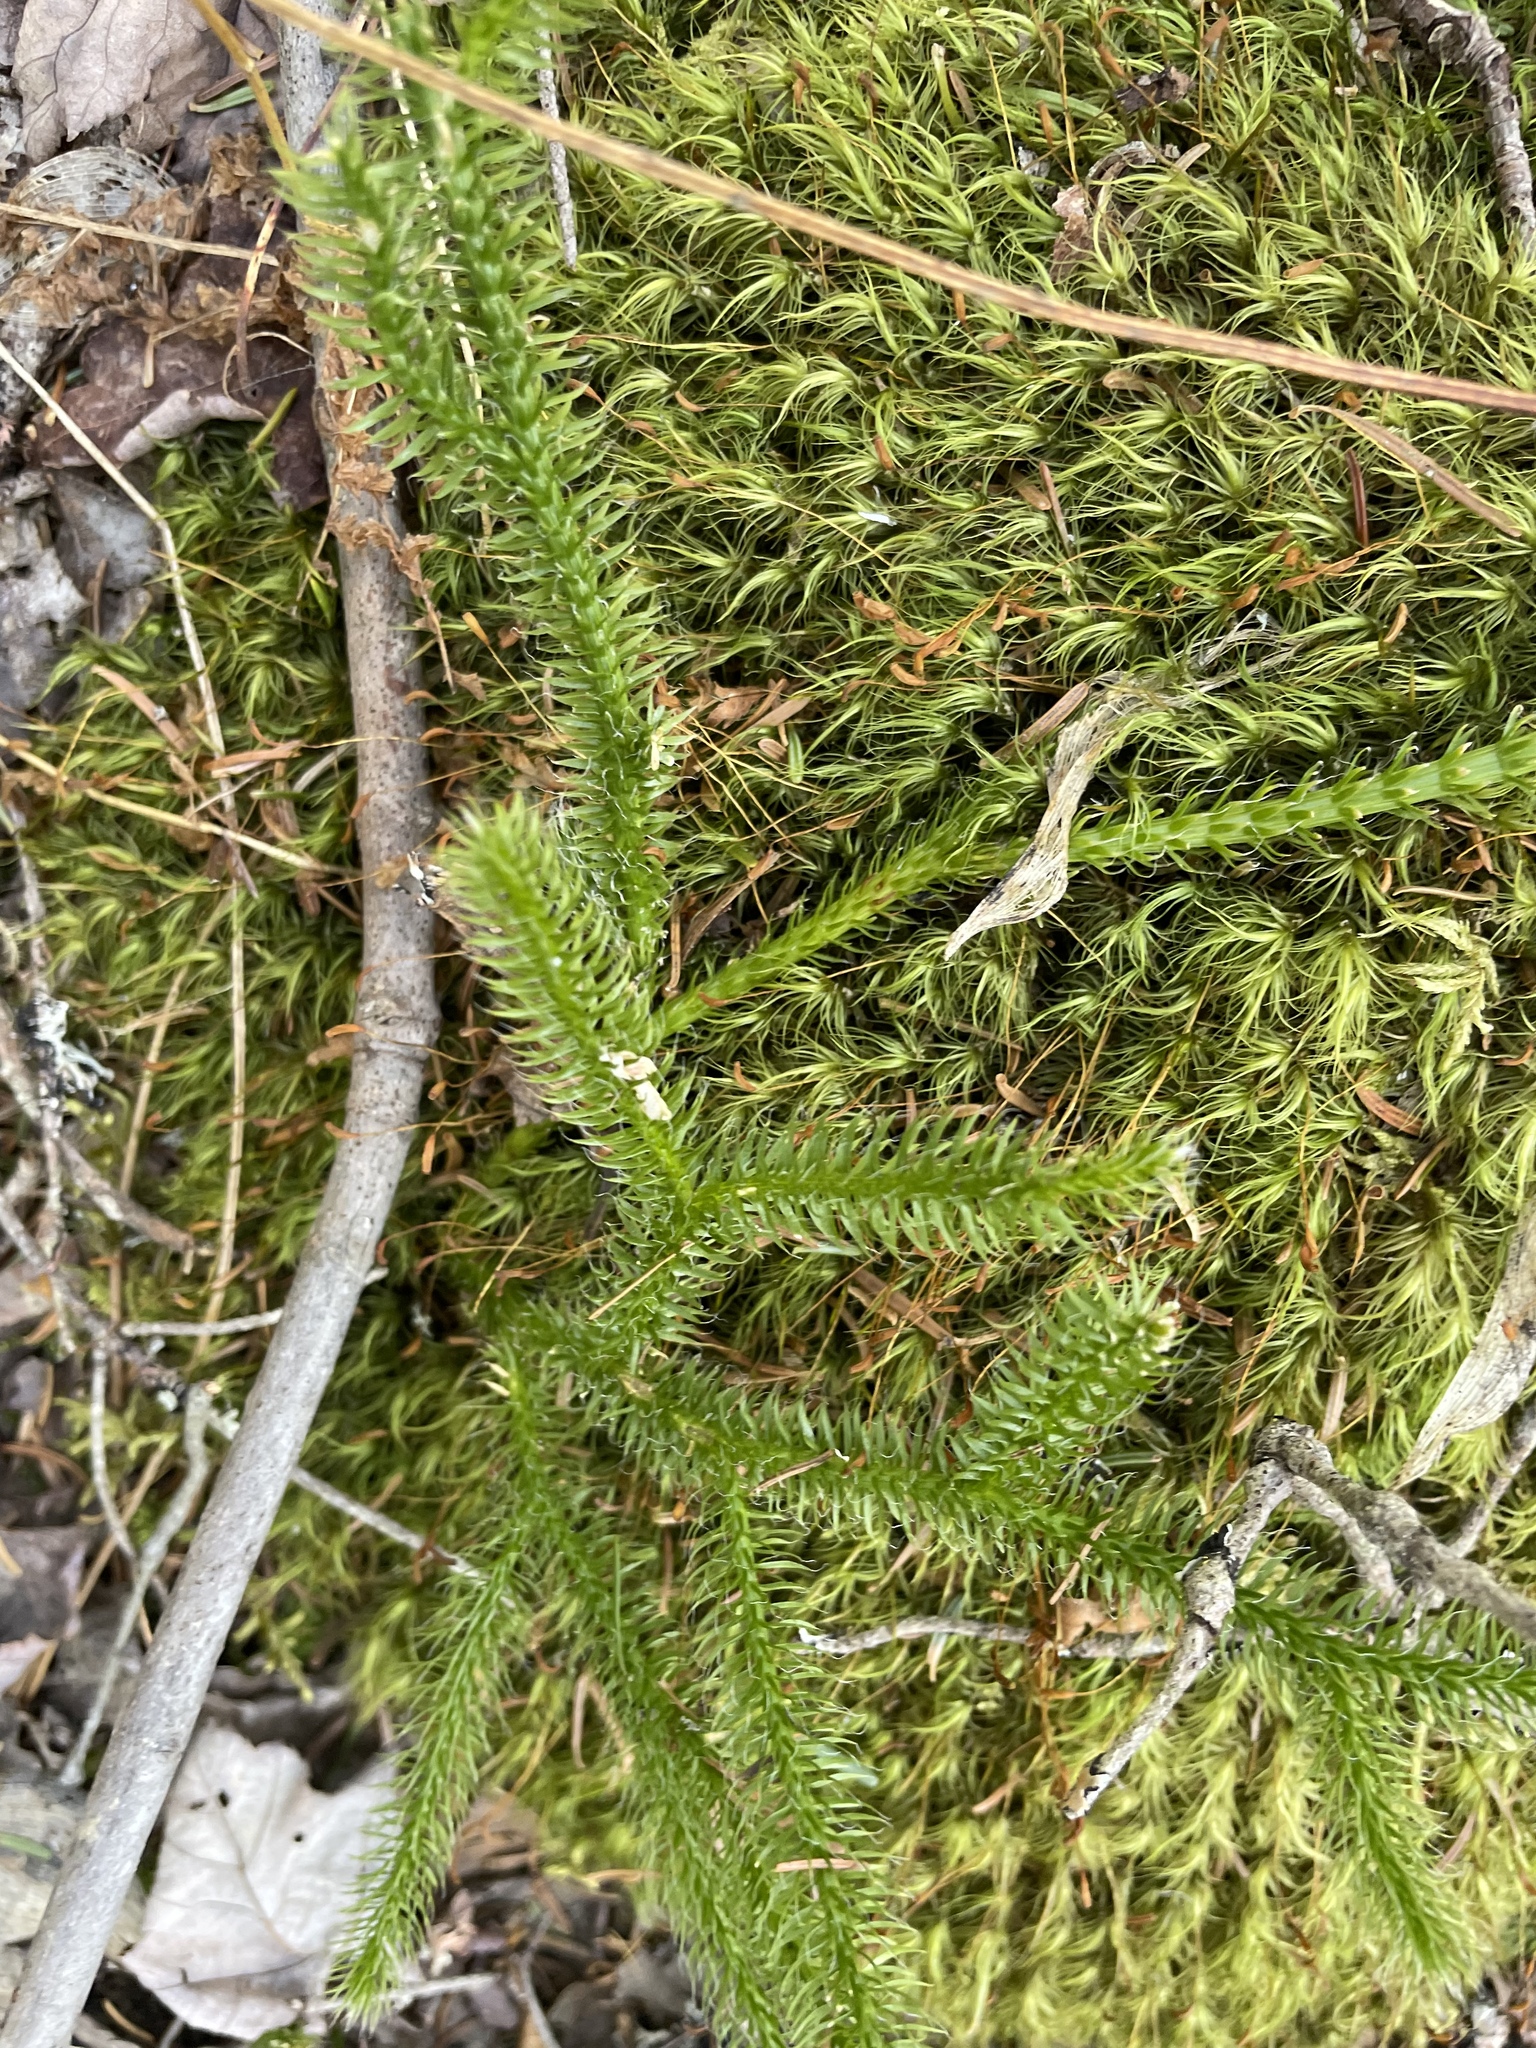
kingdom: Plantae
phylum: Tracheophyta
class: Lycopodiopsida
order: Lycopodiales
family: Lycopodiaceae
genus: Lycopodium
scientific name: Lycopodium clavatum
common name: Stag's-horn clubmoss
